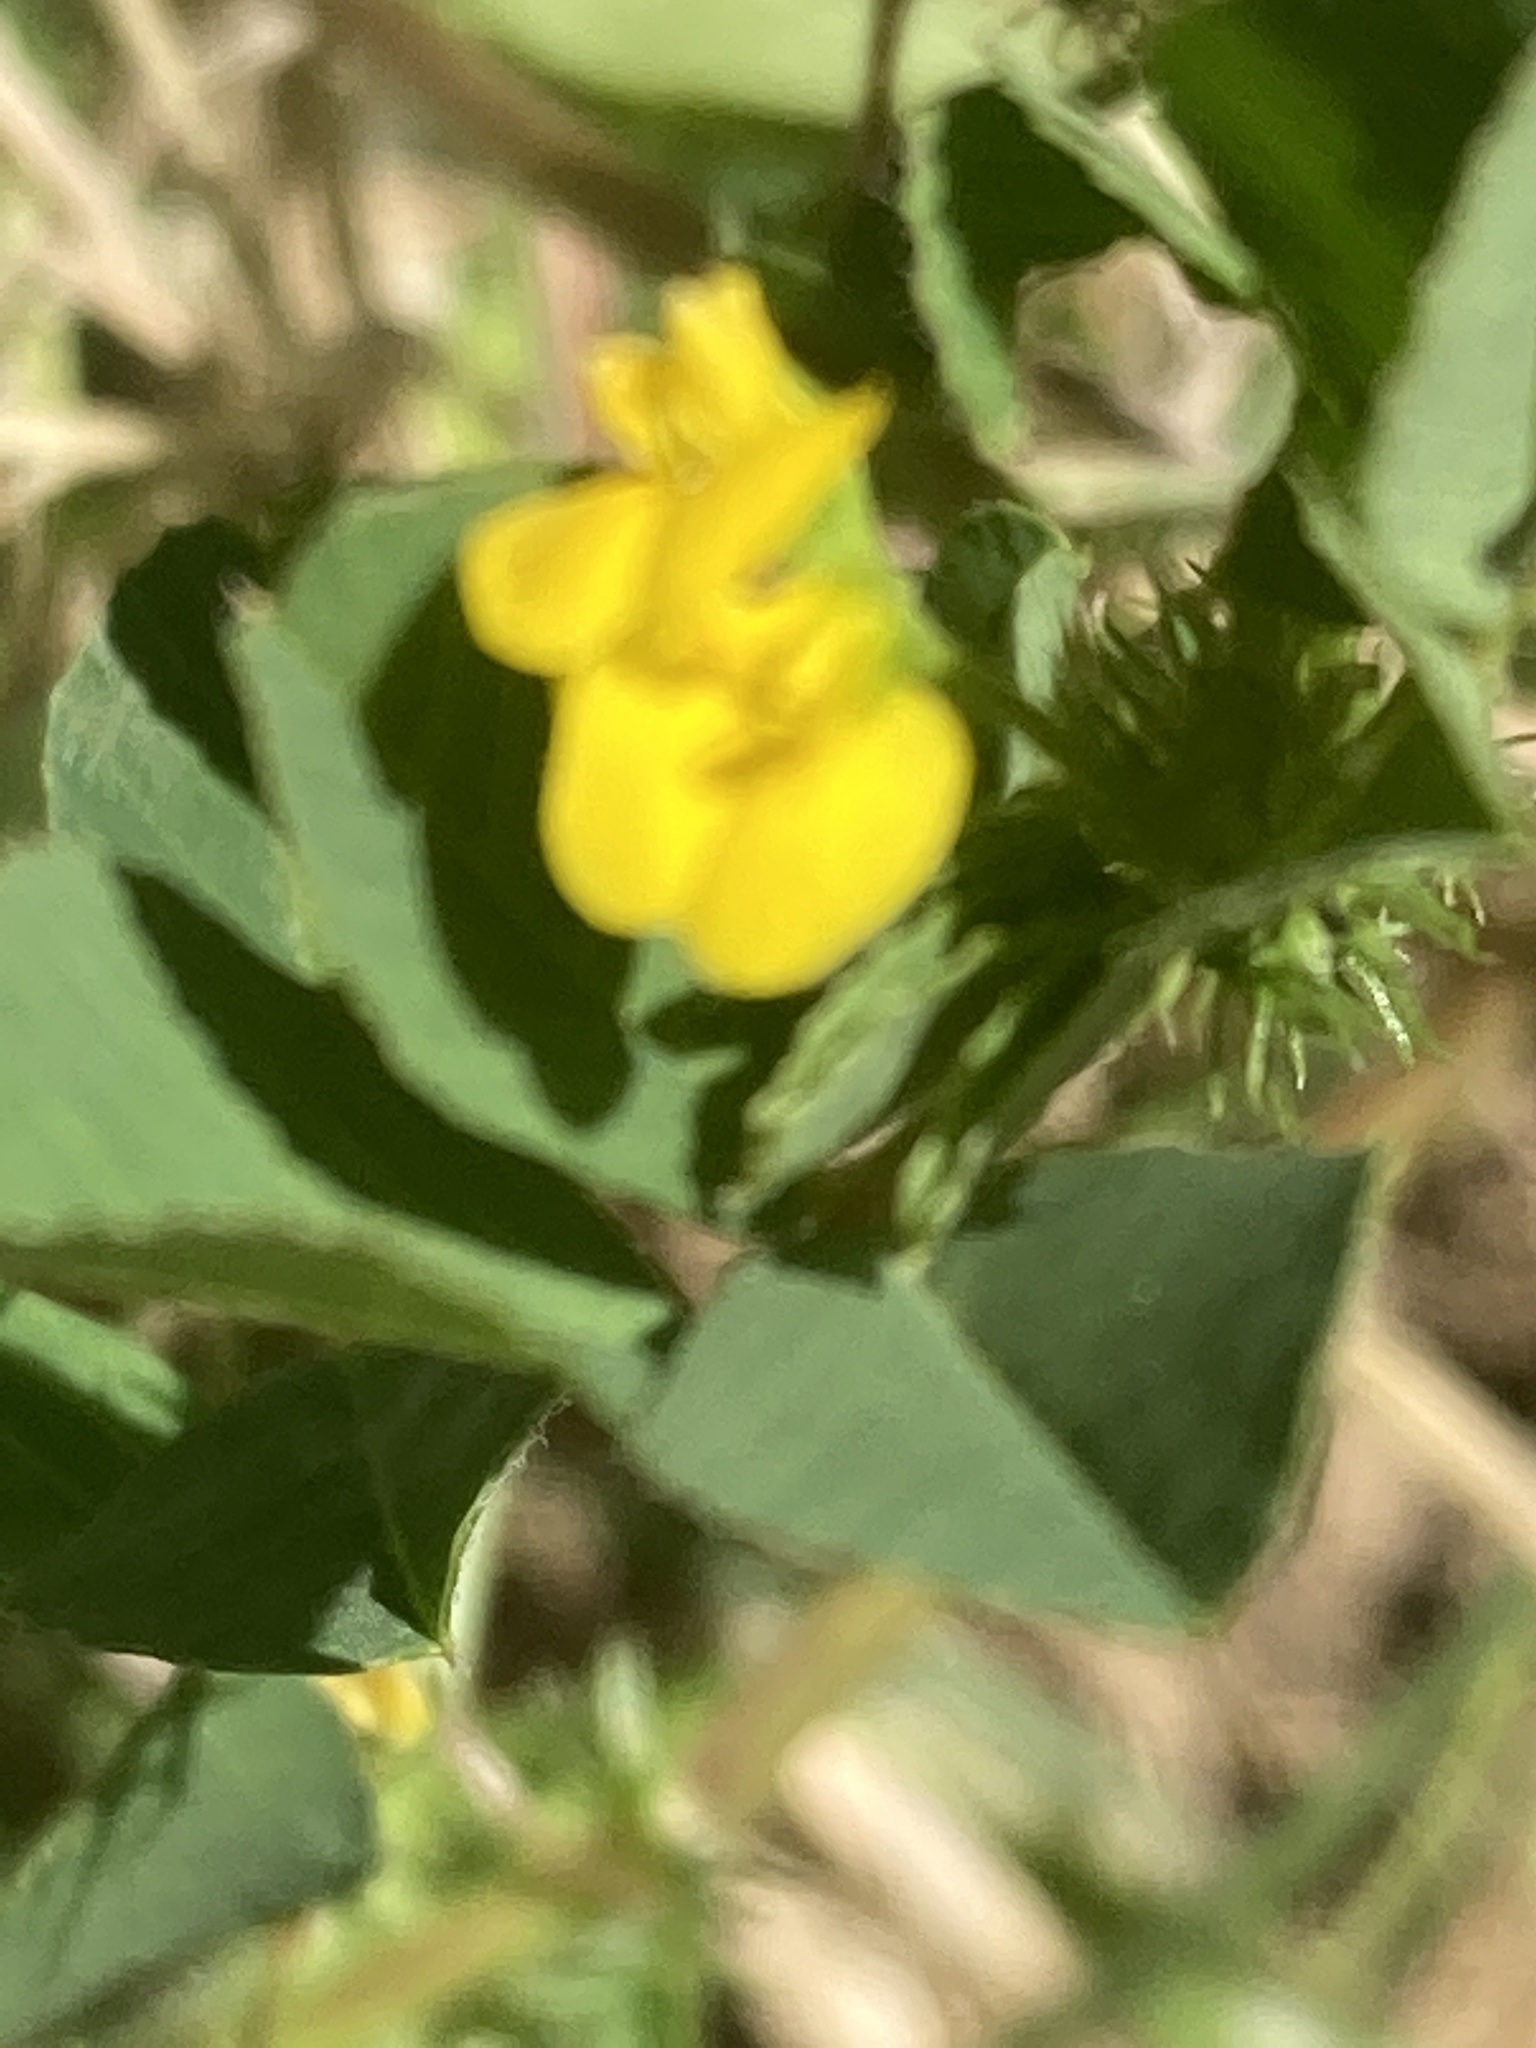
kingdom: Plantae
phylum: Tracheophyta
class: Magnoliopsida
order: Fabales
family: Fabaceae
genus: Medicago
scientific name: Medicago polymorpha
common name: Burclover
